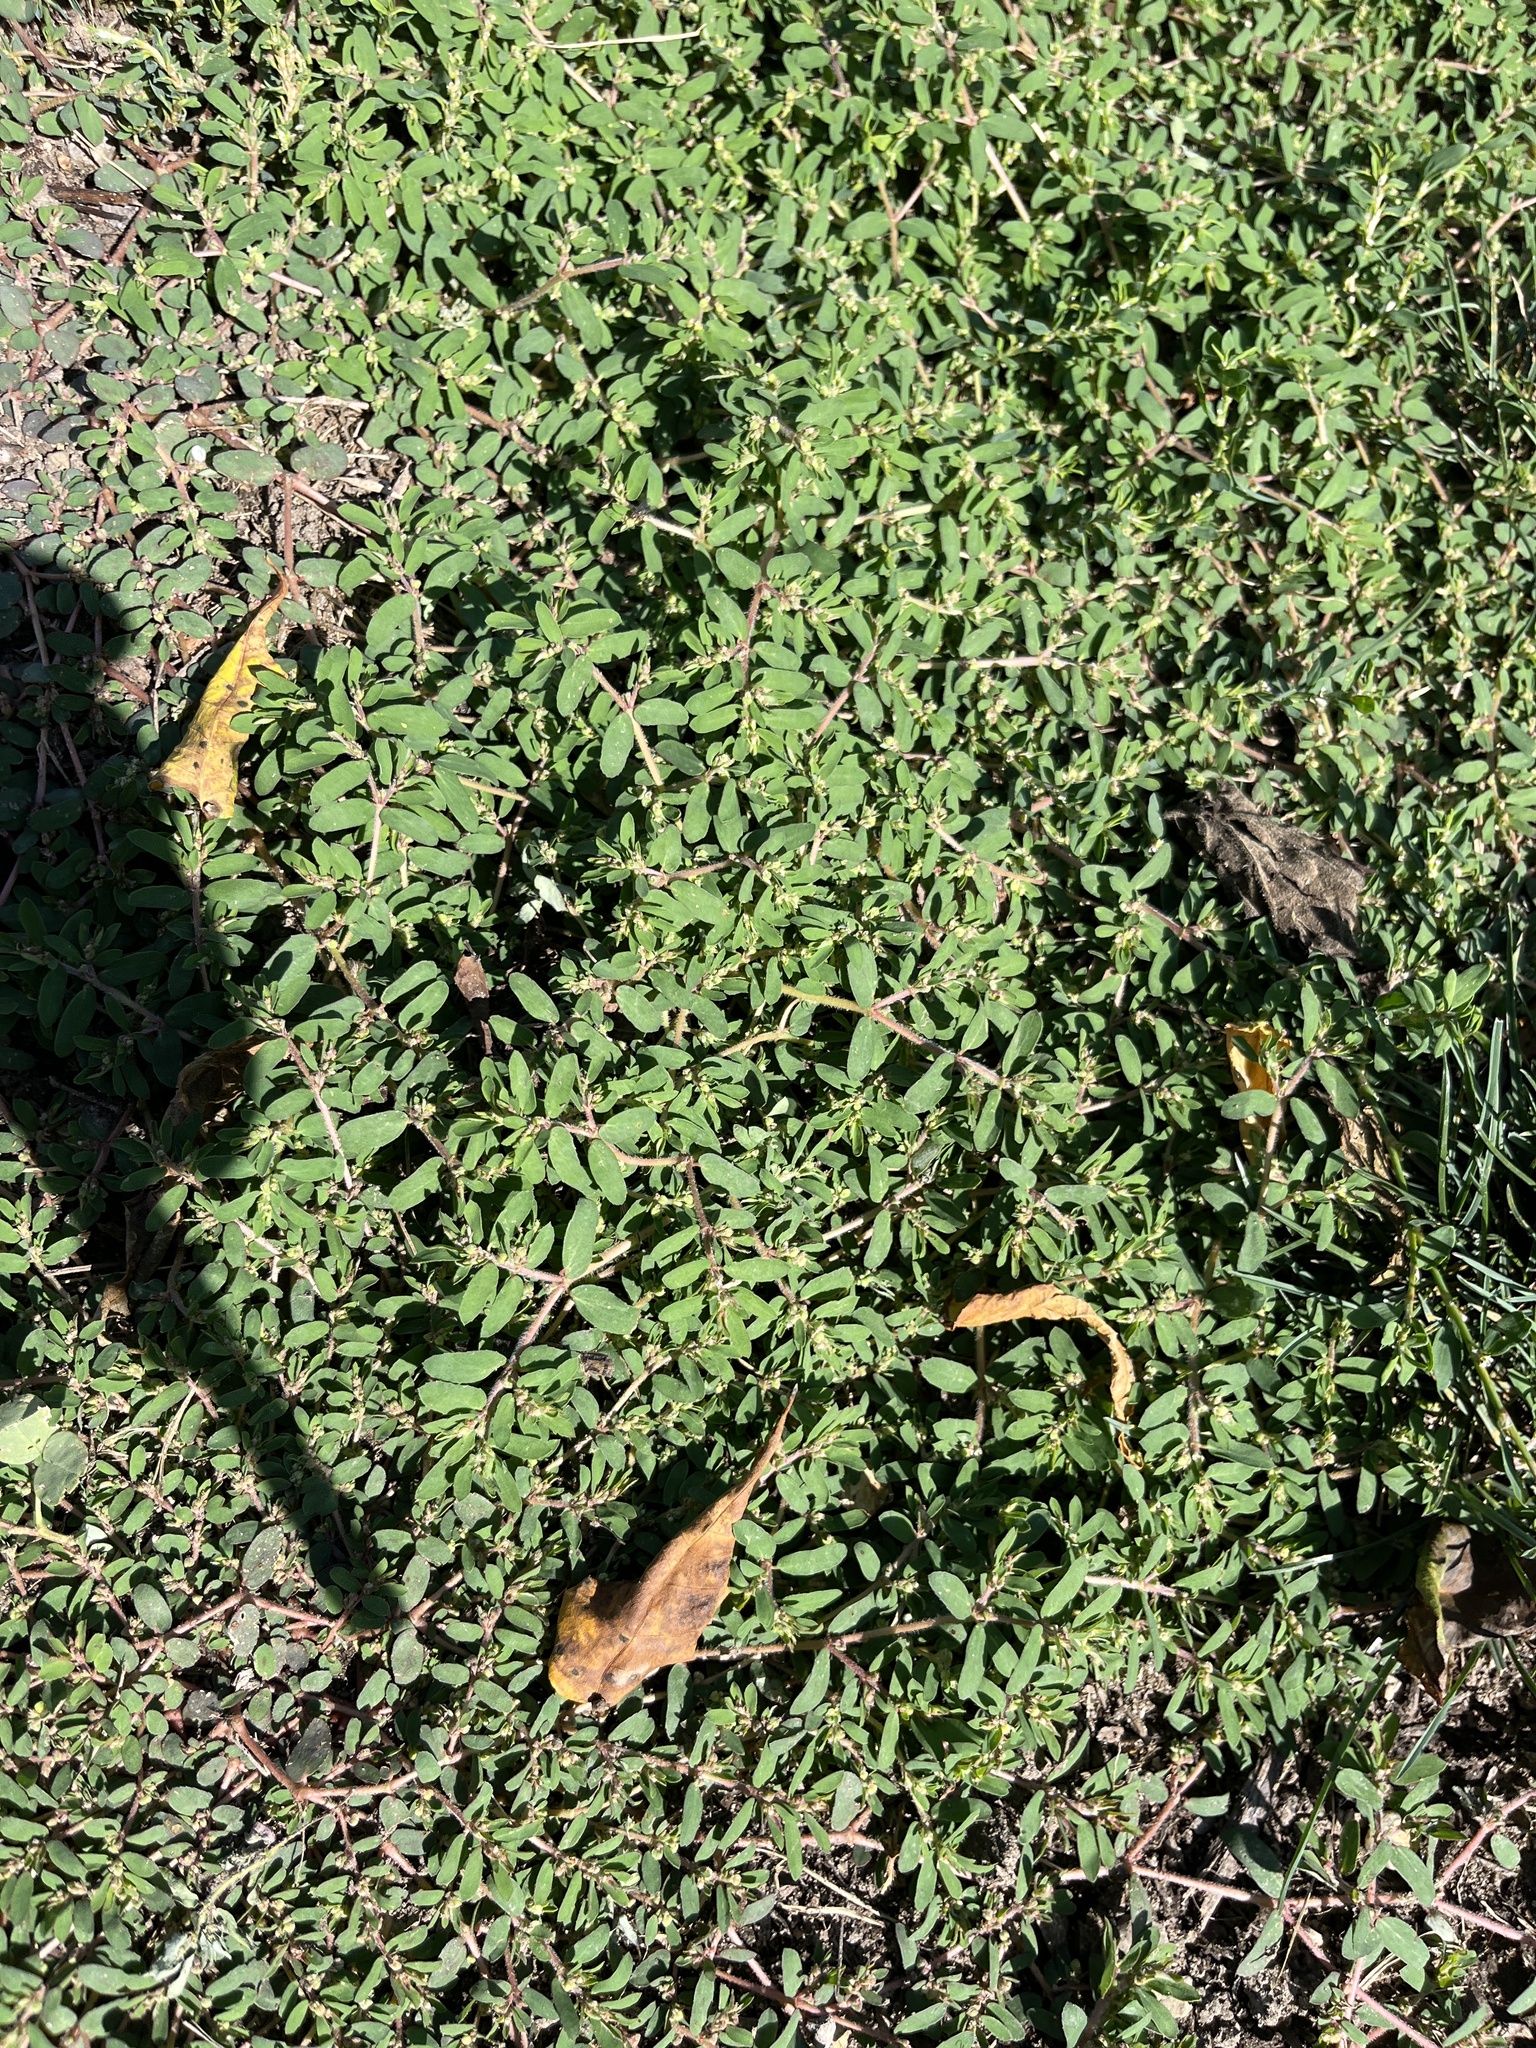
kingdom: Plantae
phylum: Tracheophyta
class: Magnoliopsida
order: Malpighiales
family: Euphorbiaceae
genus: Euphorbia
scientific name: Euphorbia maculata
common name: Spotted spurge
